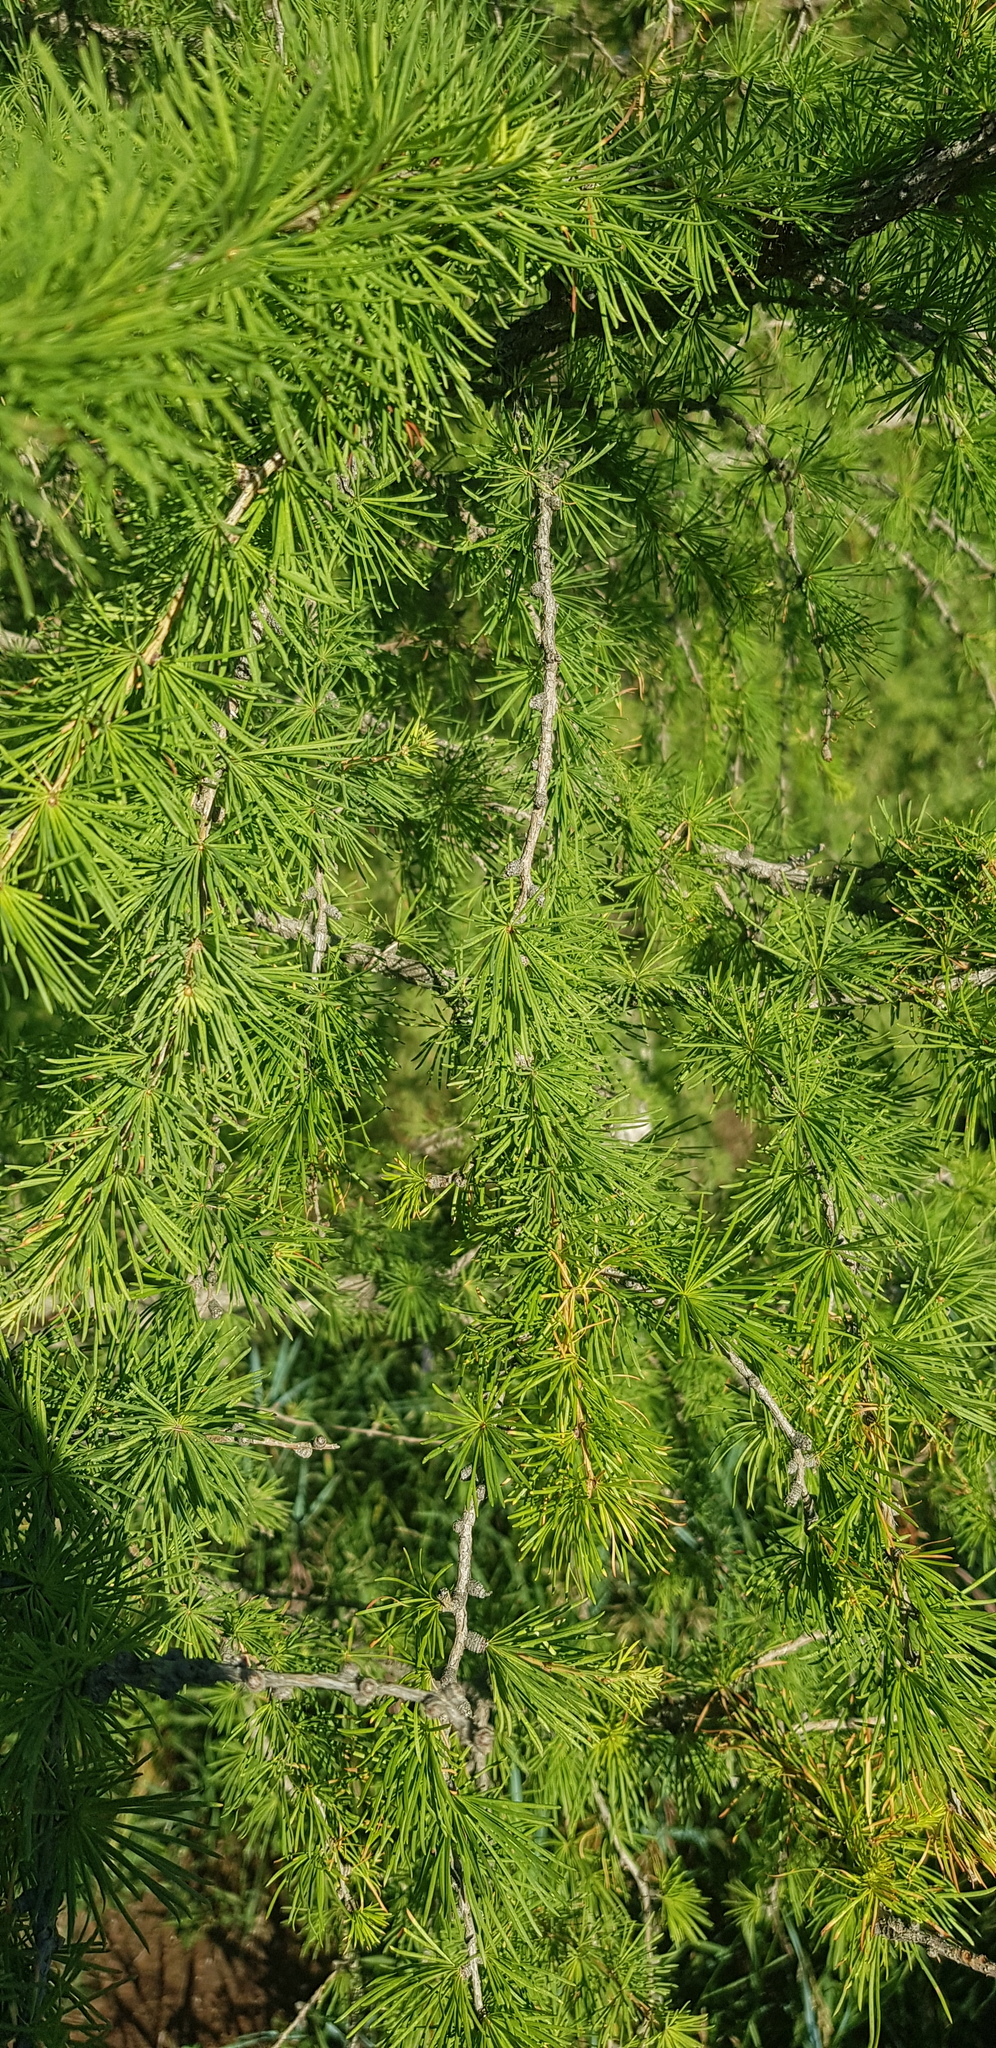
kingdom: Plantae
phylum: Tracheophyta
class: Pinopsida
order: Pinales
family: Pinaceae
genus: Larix
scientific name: Larix sibirica
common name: Siberian larch
